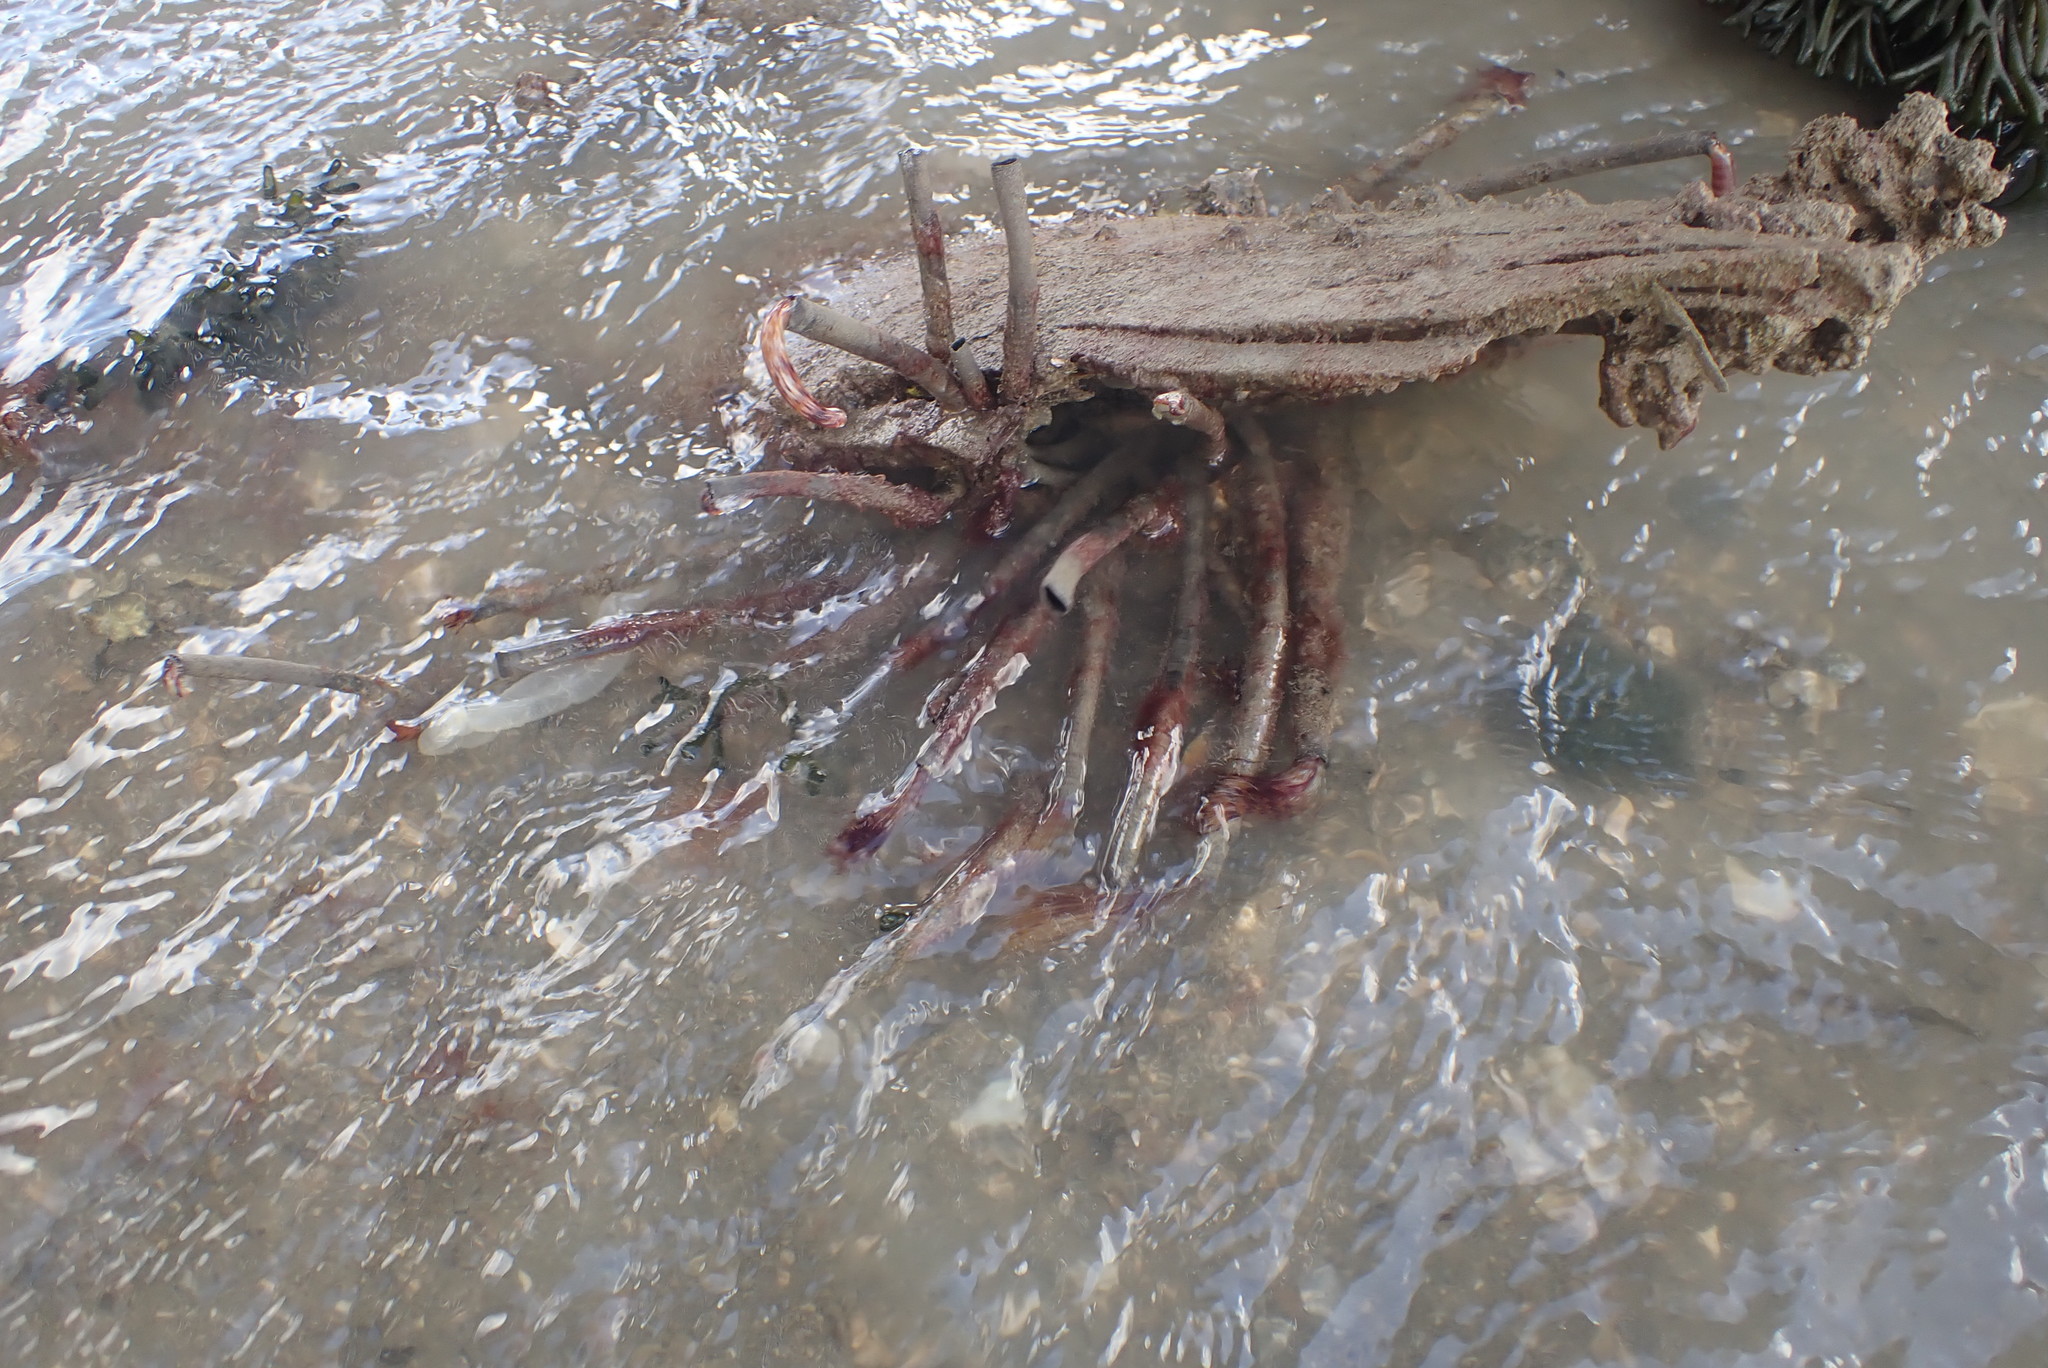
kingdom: Animalia
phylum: Annelida
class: Polychaeta
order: Sabellida
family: Sabellidae
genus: Sabella
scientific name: Sabella spallanzanii
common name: Feather duster worm
